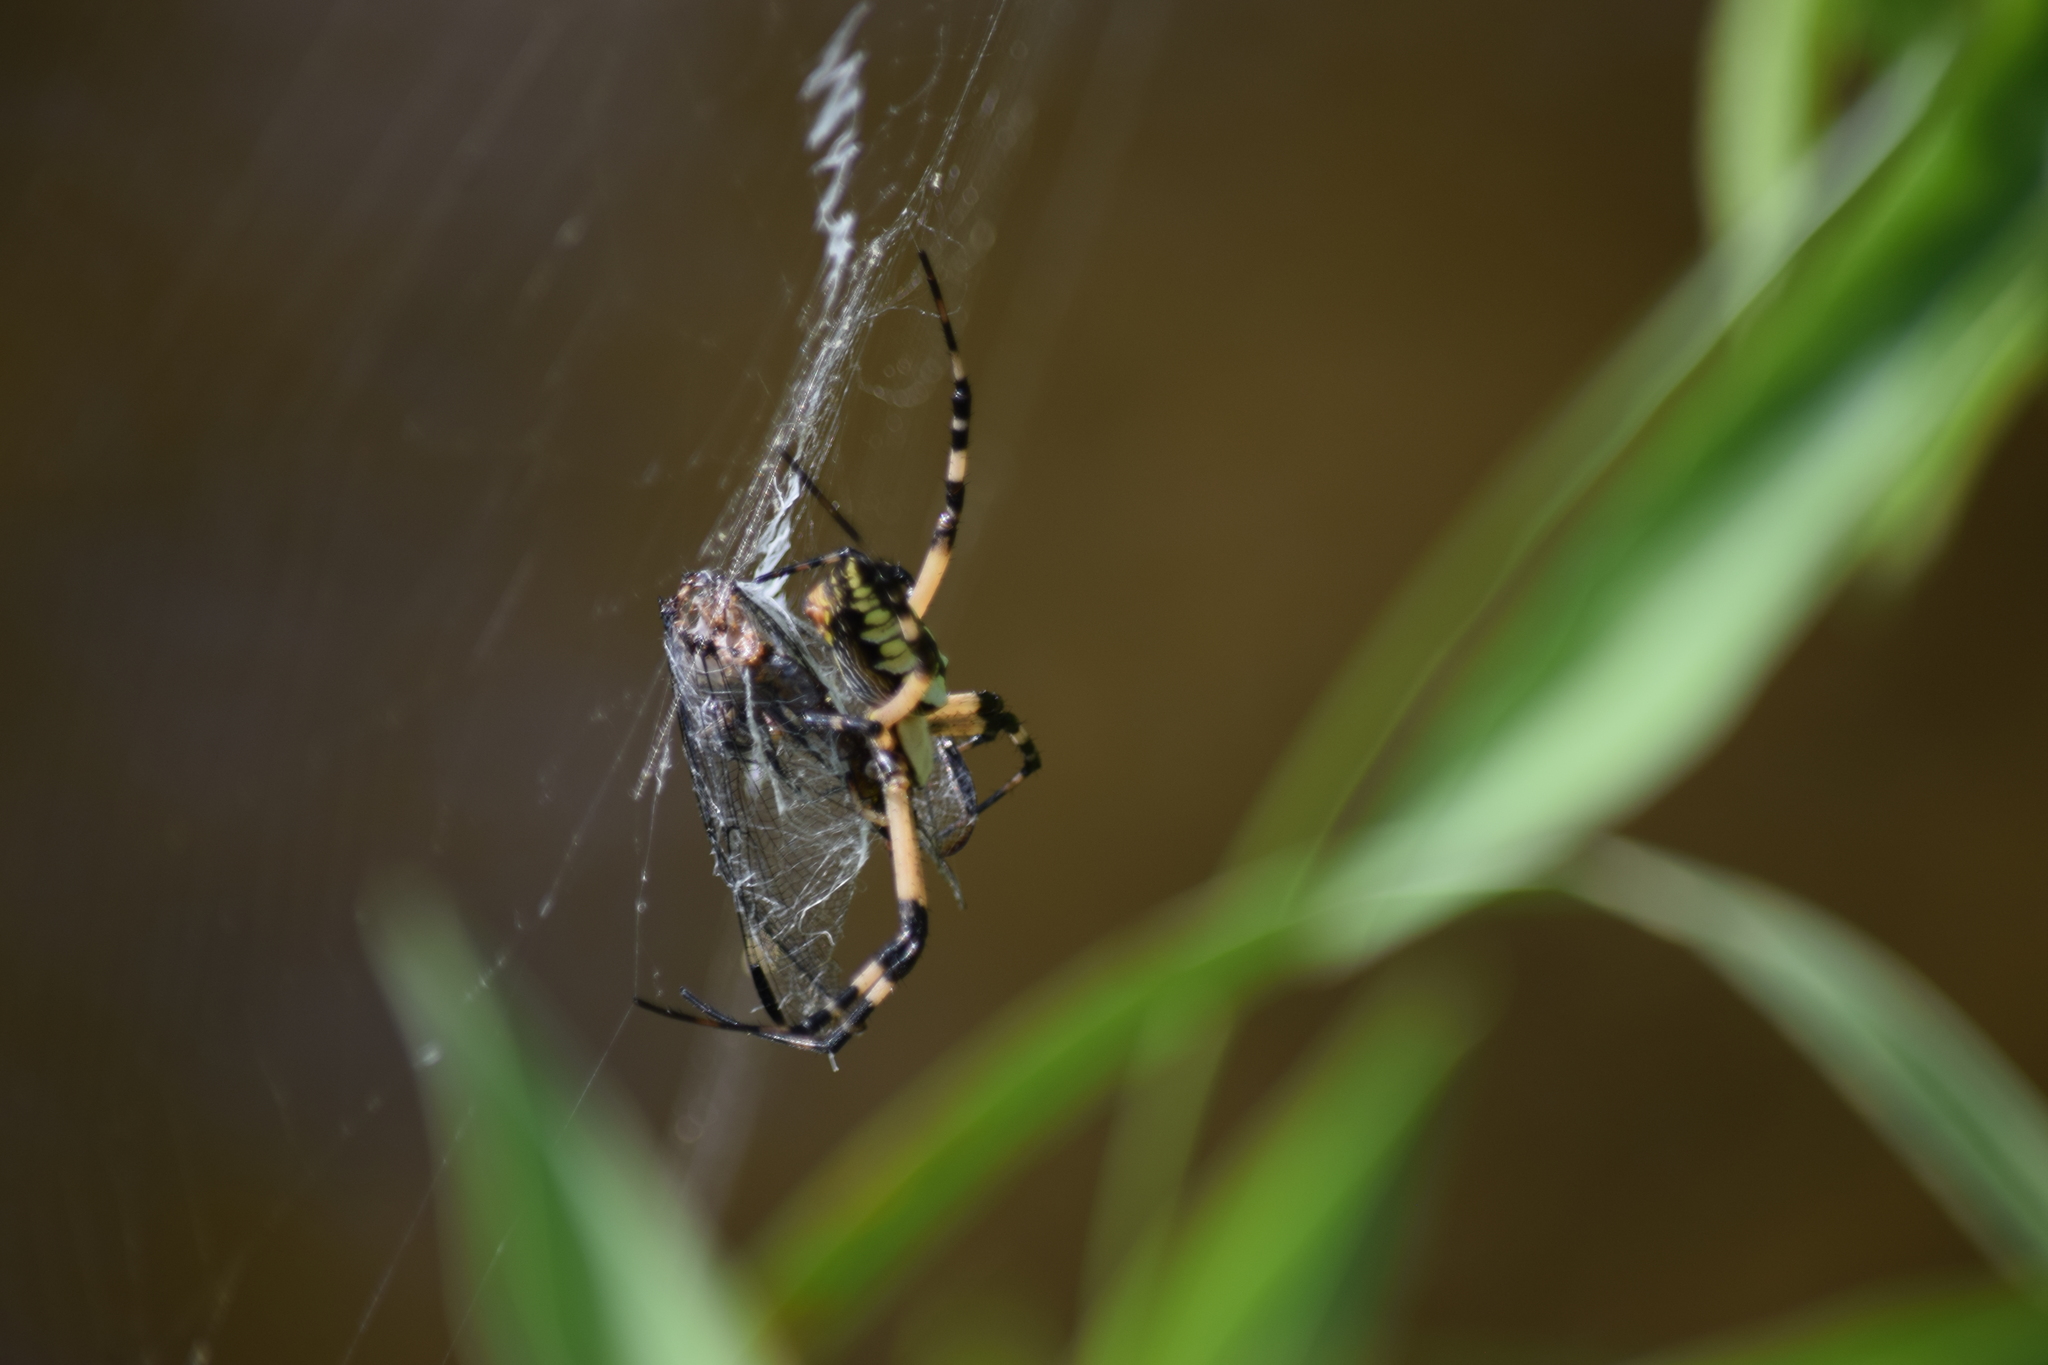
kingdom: Animalia
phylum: Arthropoda
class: Arachnida
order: Araneae
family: Araneidae
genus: Argiope
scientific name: Argiope aurantia
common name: Orb weavers
